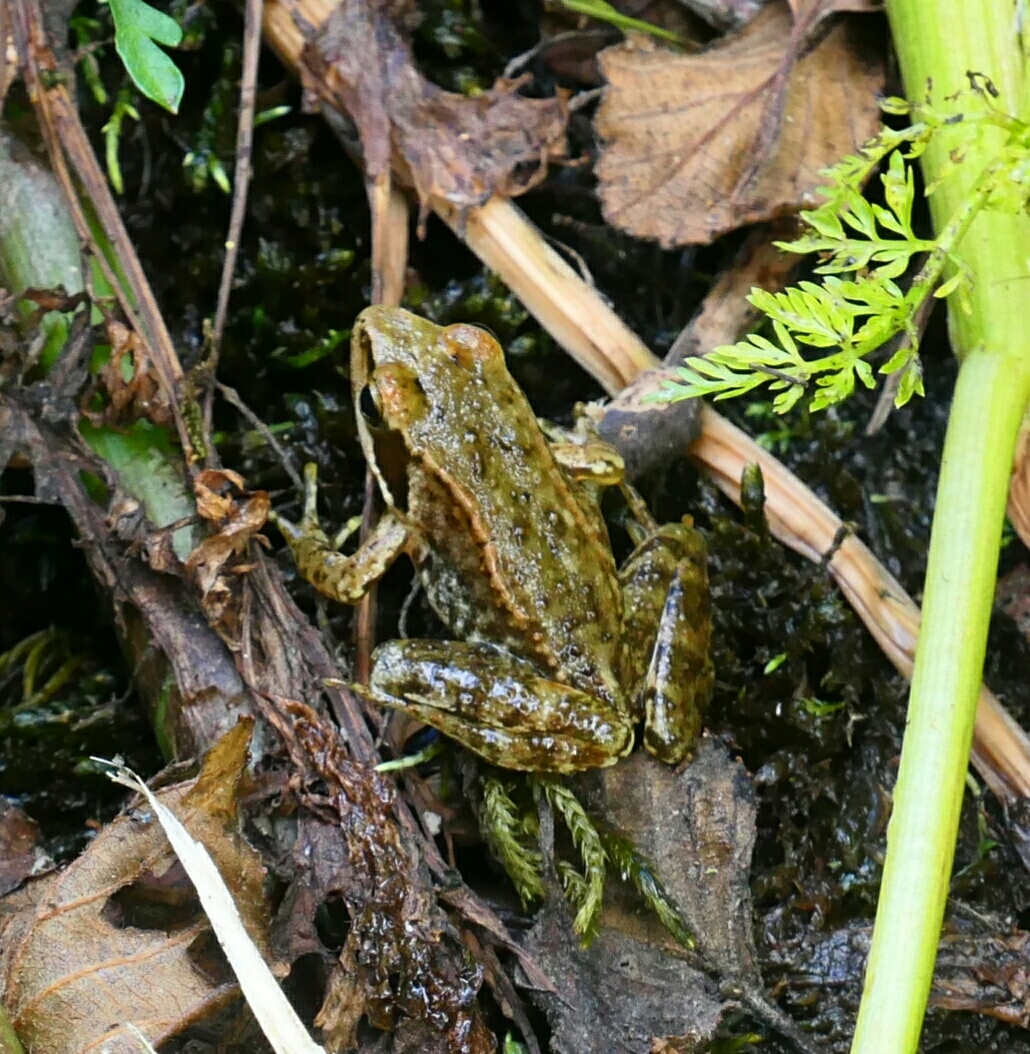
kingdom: Animalia
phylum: Chordata
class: Amphibia
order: Anura
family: Ranidae
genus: Rana
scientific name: Rana iberica
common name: Iberian frog
